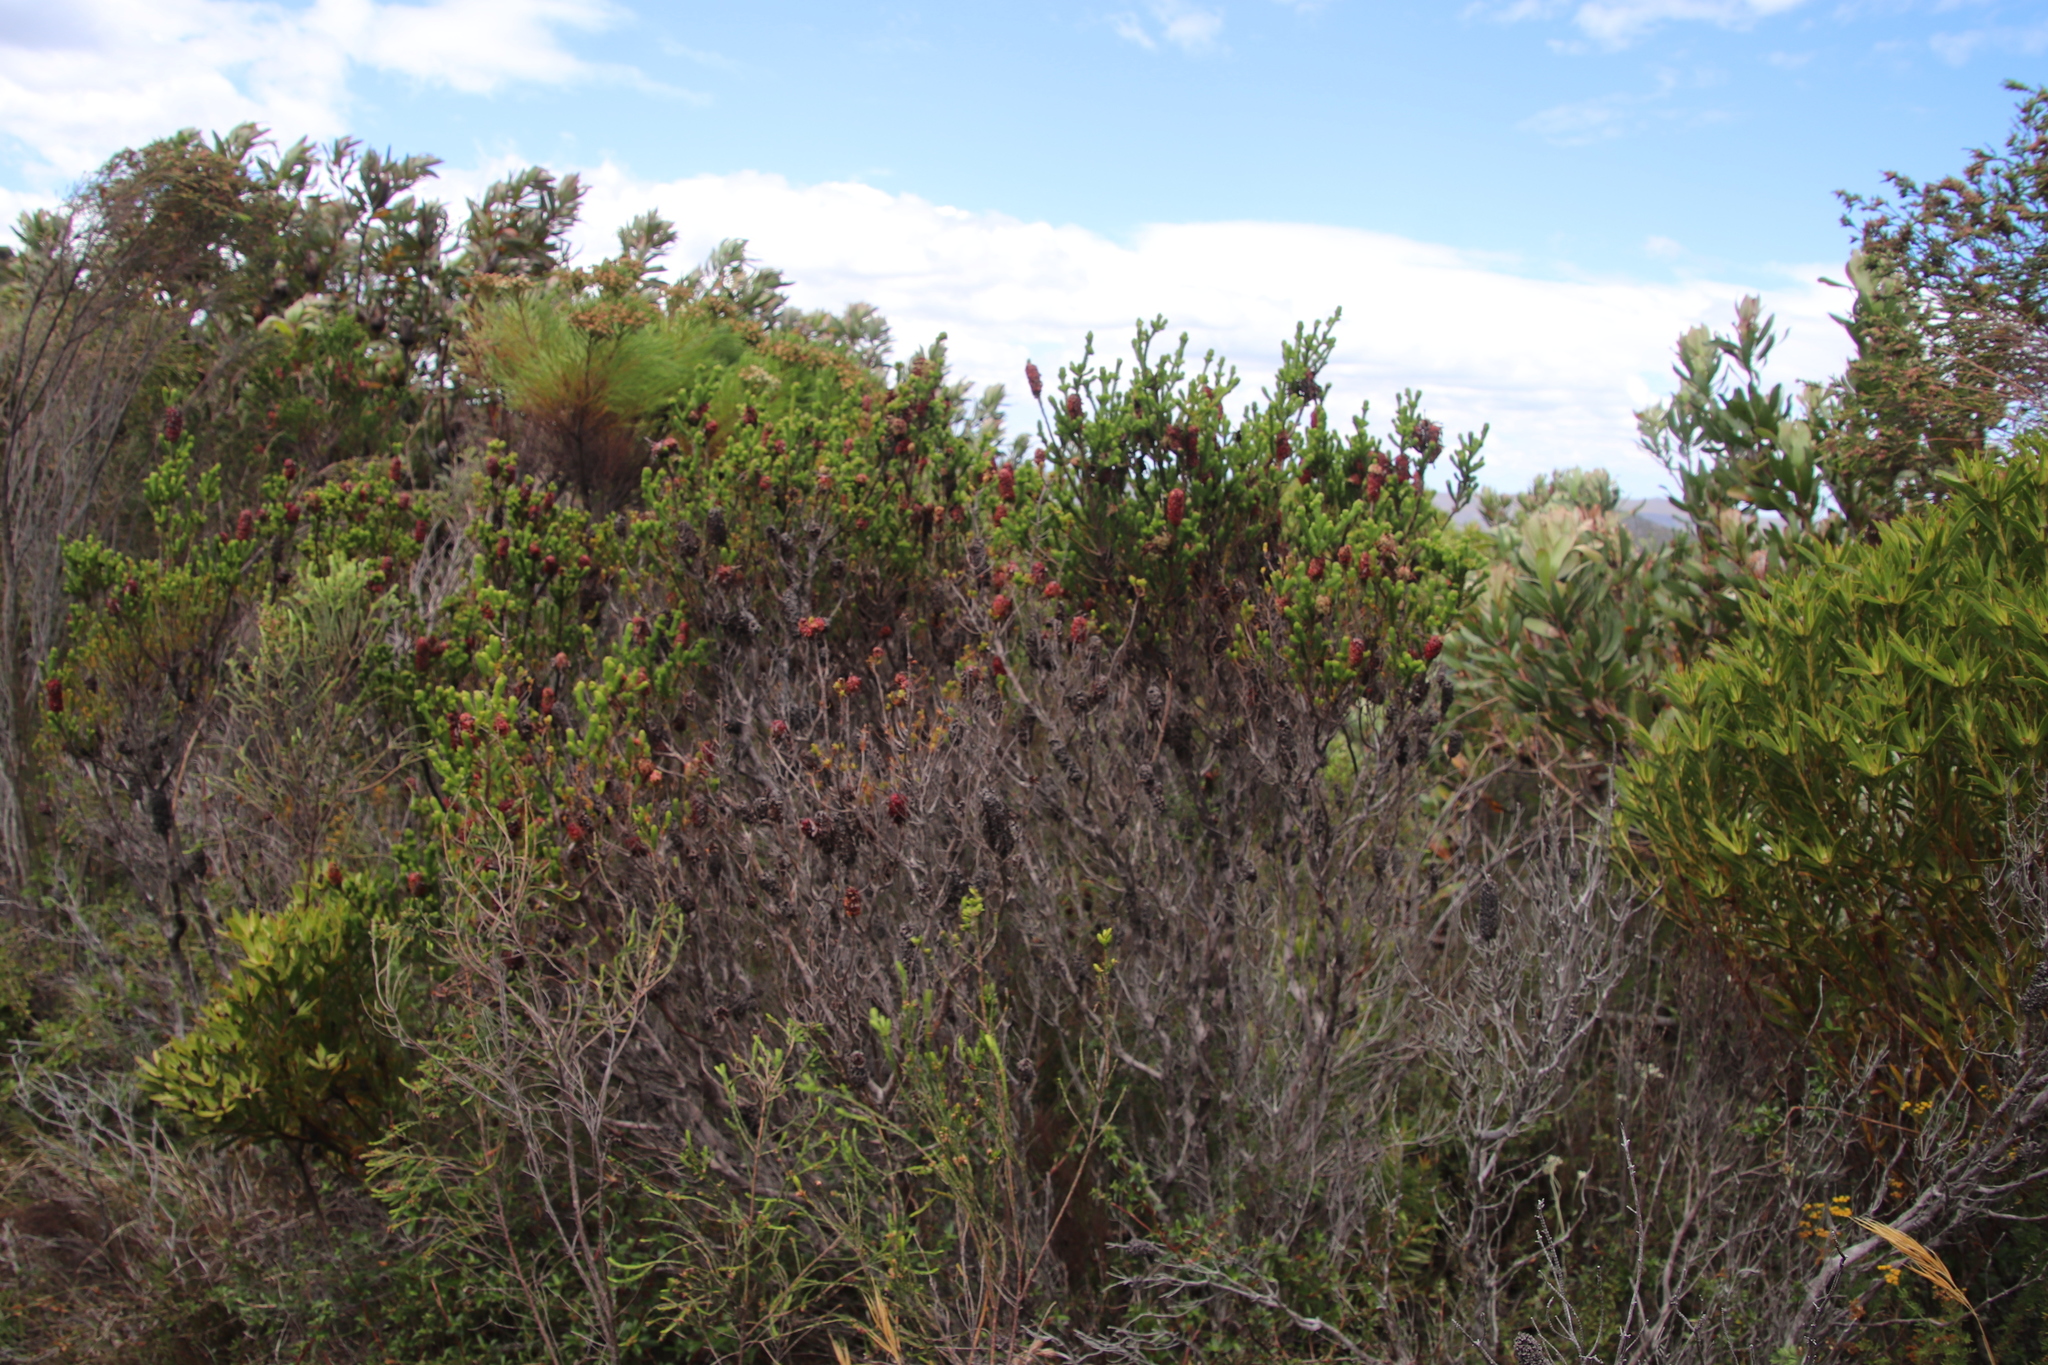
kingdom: Plantae
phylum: Tracheophyta
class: Magnoliopsida
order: Ericales
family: Ericaceae
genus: Erica
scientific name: Erica sessiliflora
